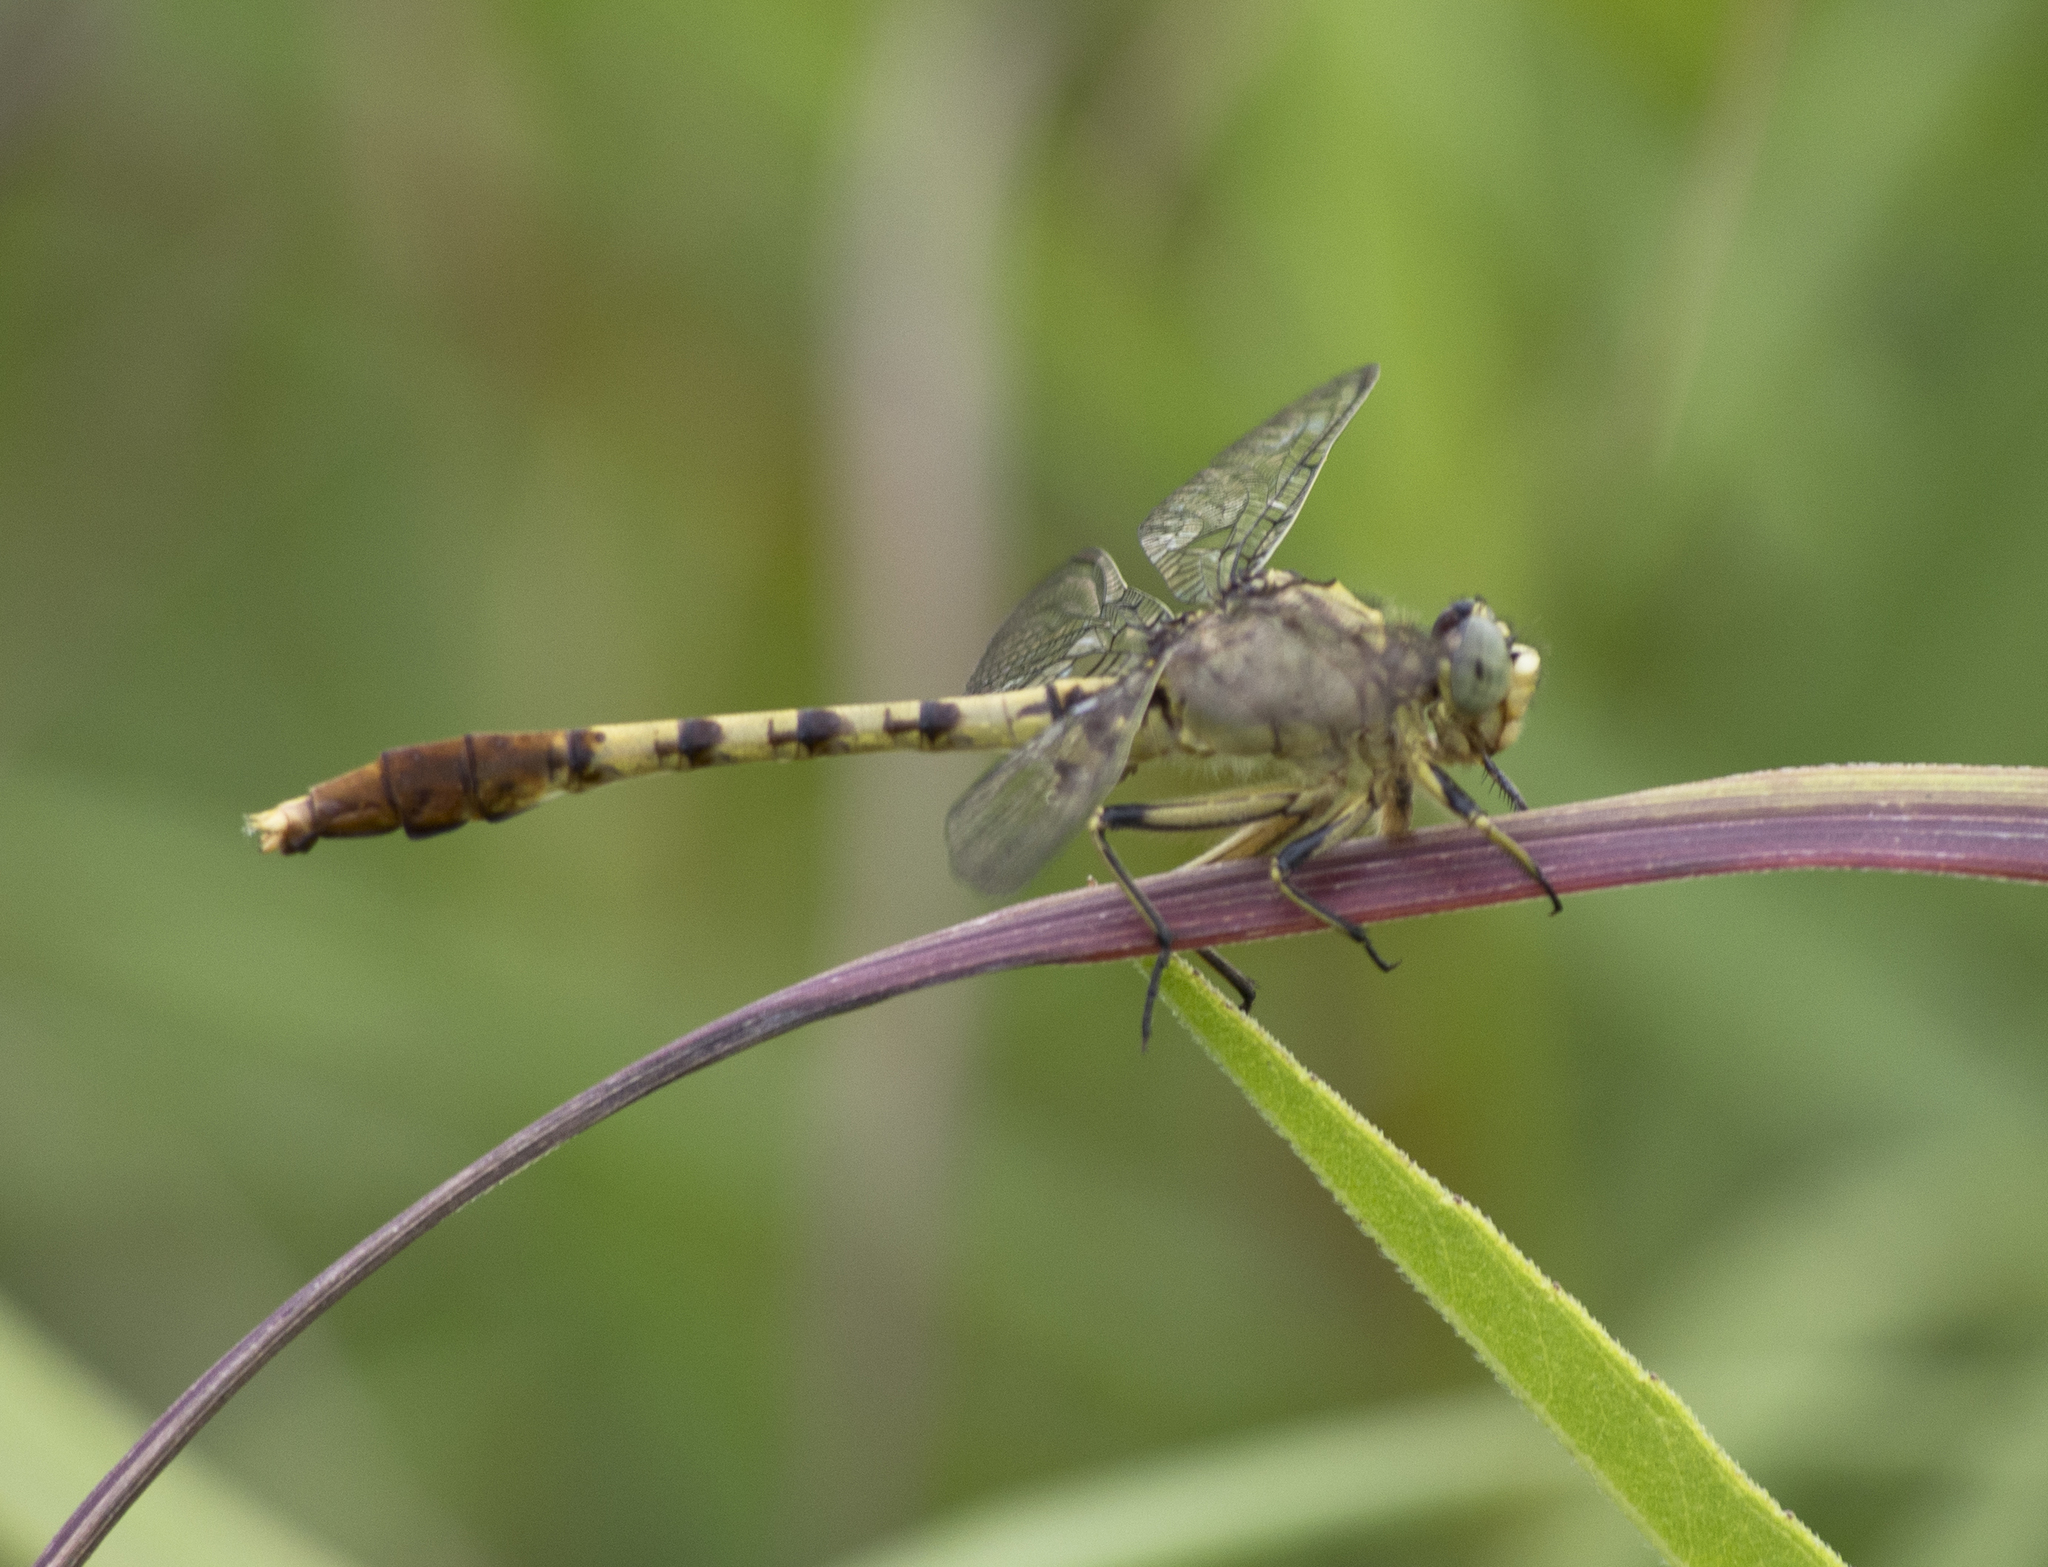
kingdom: Animalia
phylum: Arthropoda
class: Insecta
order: Odonata
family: Gomphidae
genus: Arigomphus
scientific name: Arigomphus submedianus
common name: Jade clubtail
